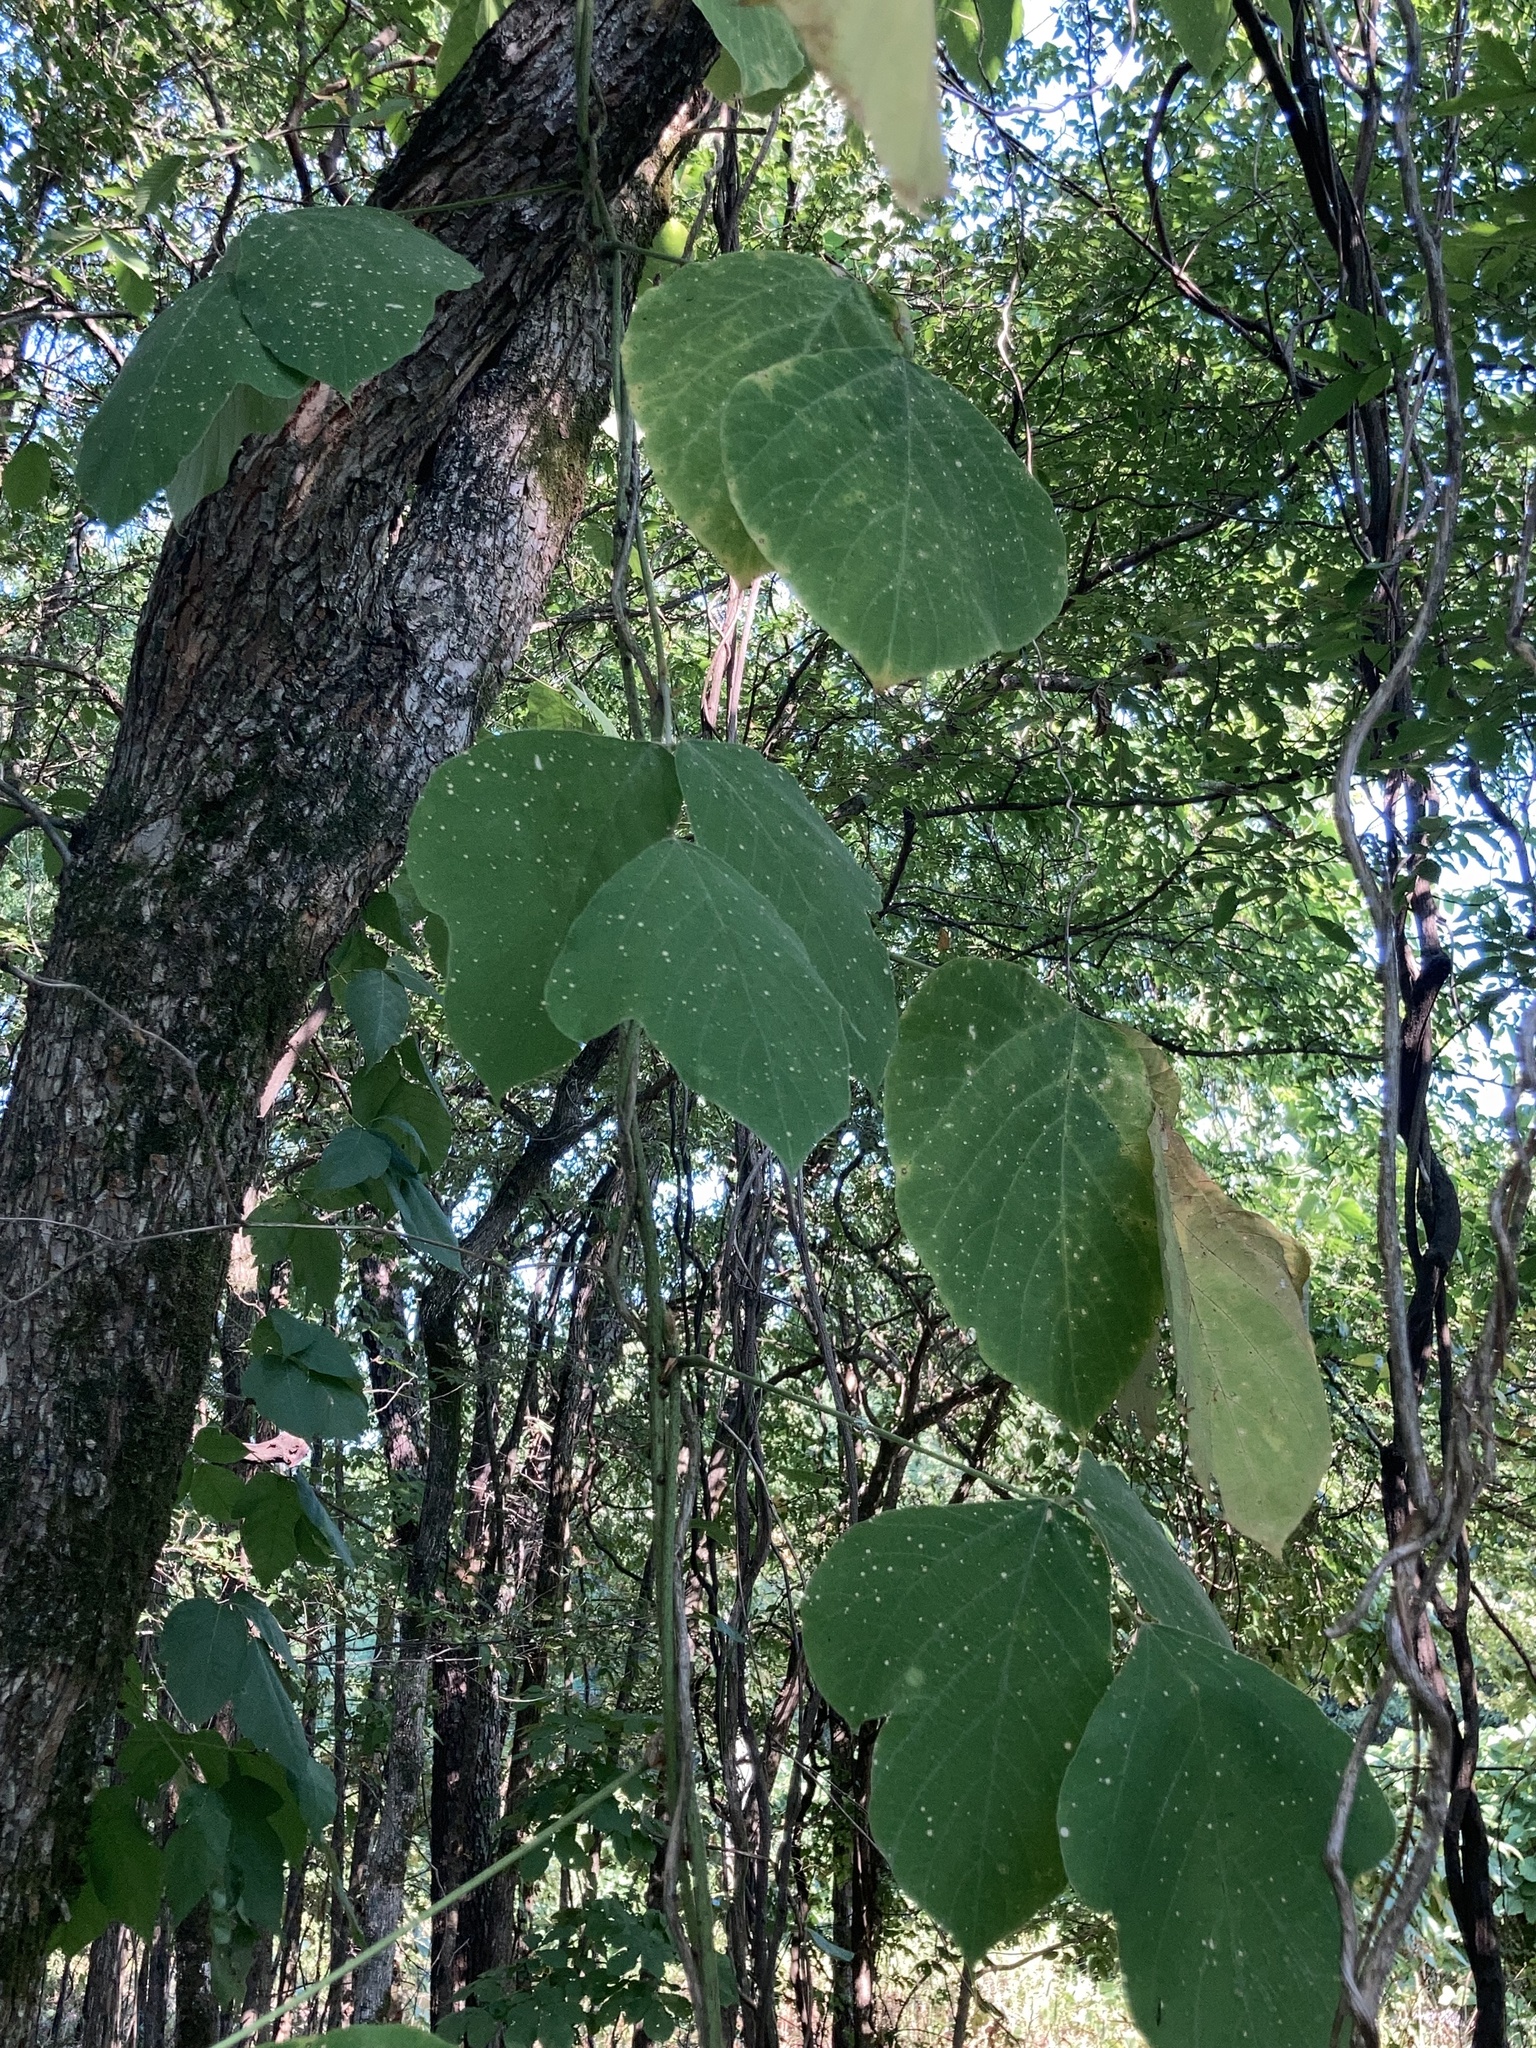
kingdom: Plantae
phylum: Tracheophyta
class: Magnoliopsida
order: Fabales
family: Fabaceae
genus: Pueraria
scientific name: Pueraria montana
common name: Kudzu
